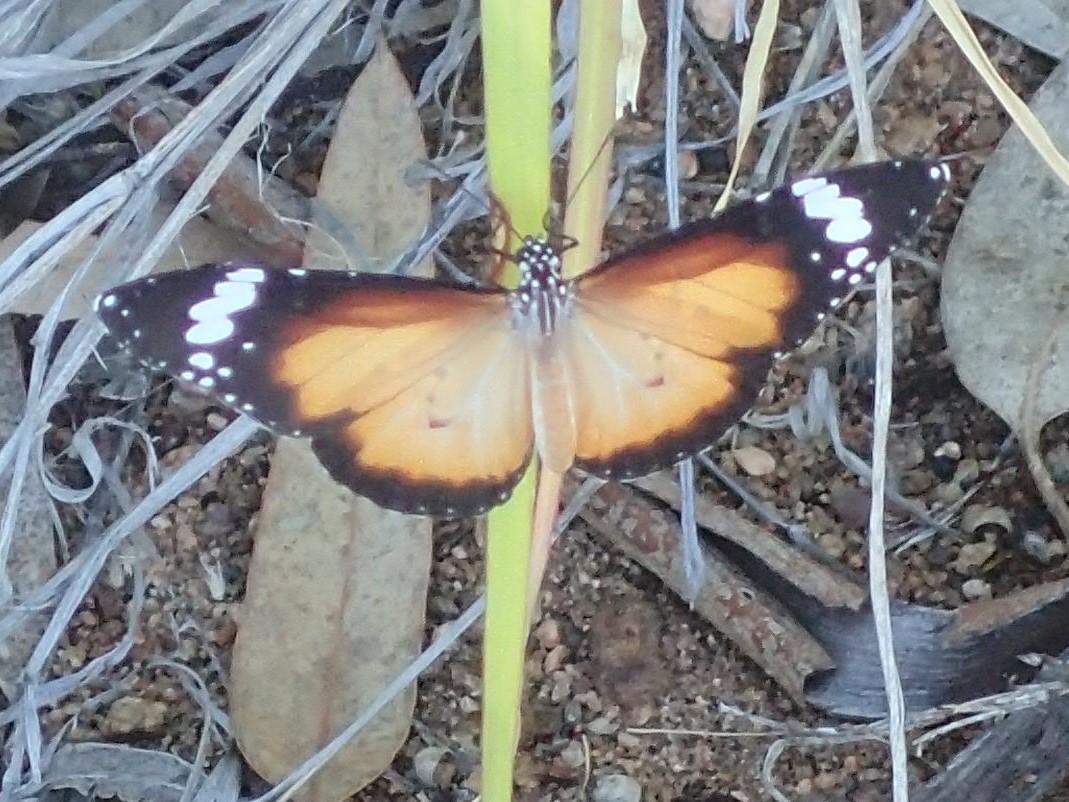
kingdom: Animalia
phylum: Arthropoda
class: Insecta
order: Lepidoptera
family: Nymphalidae
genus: Danaus
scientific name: Danaus chrysippus
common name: Plain tiger
